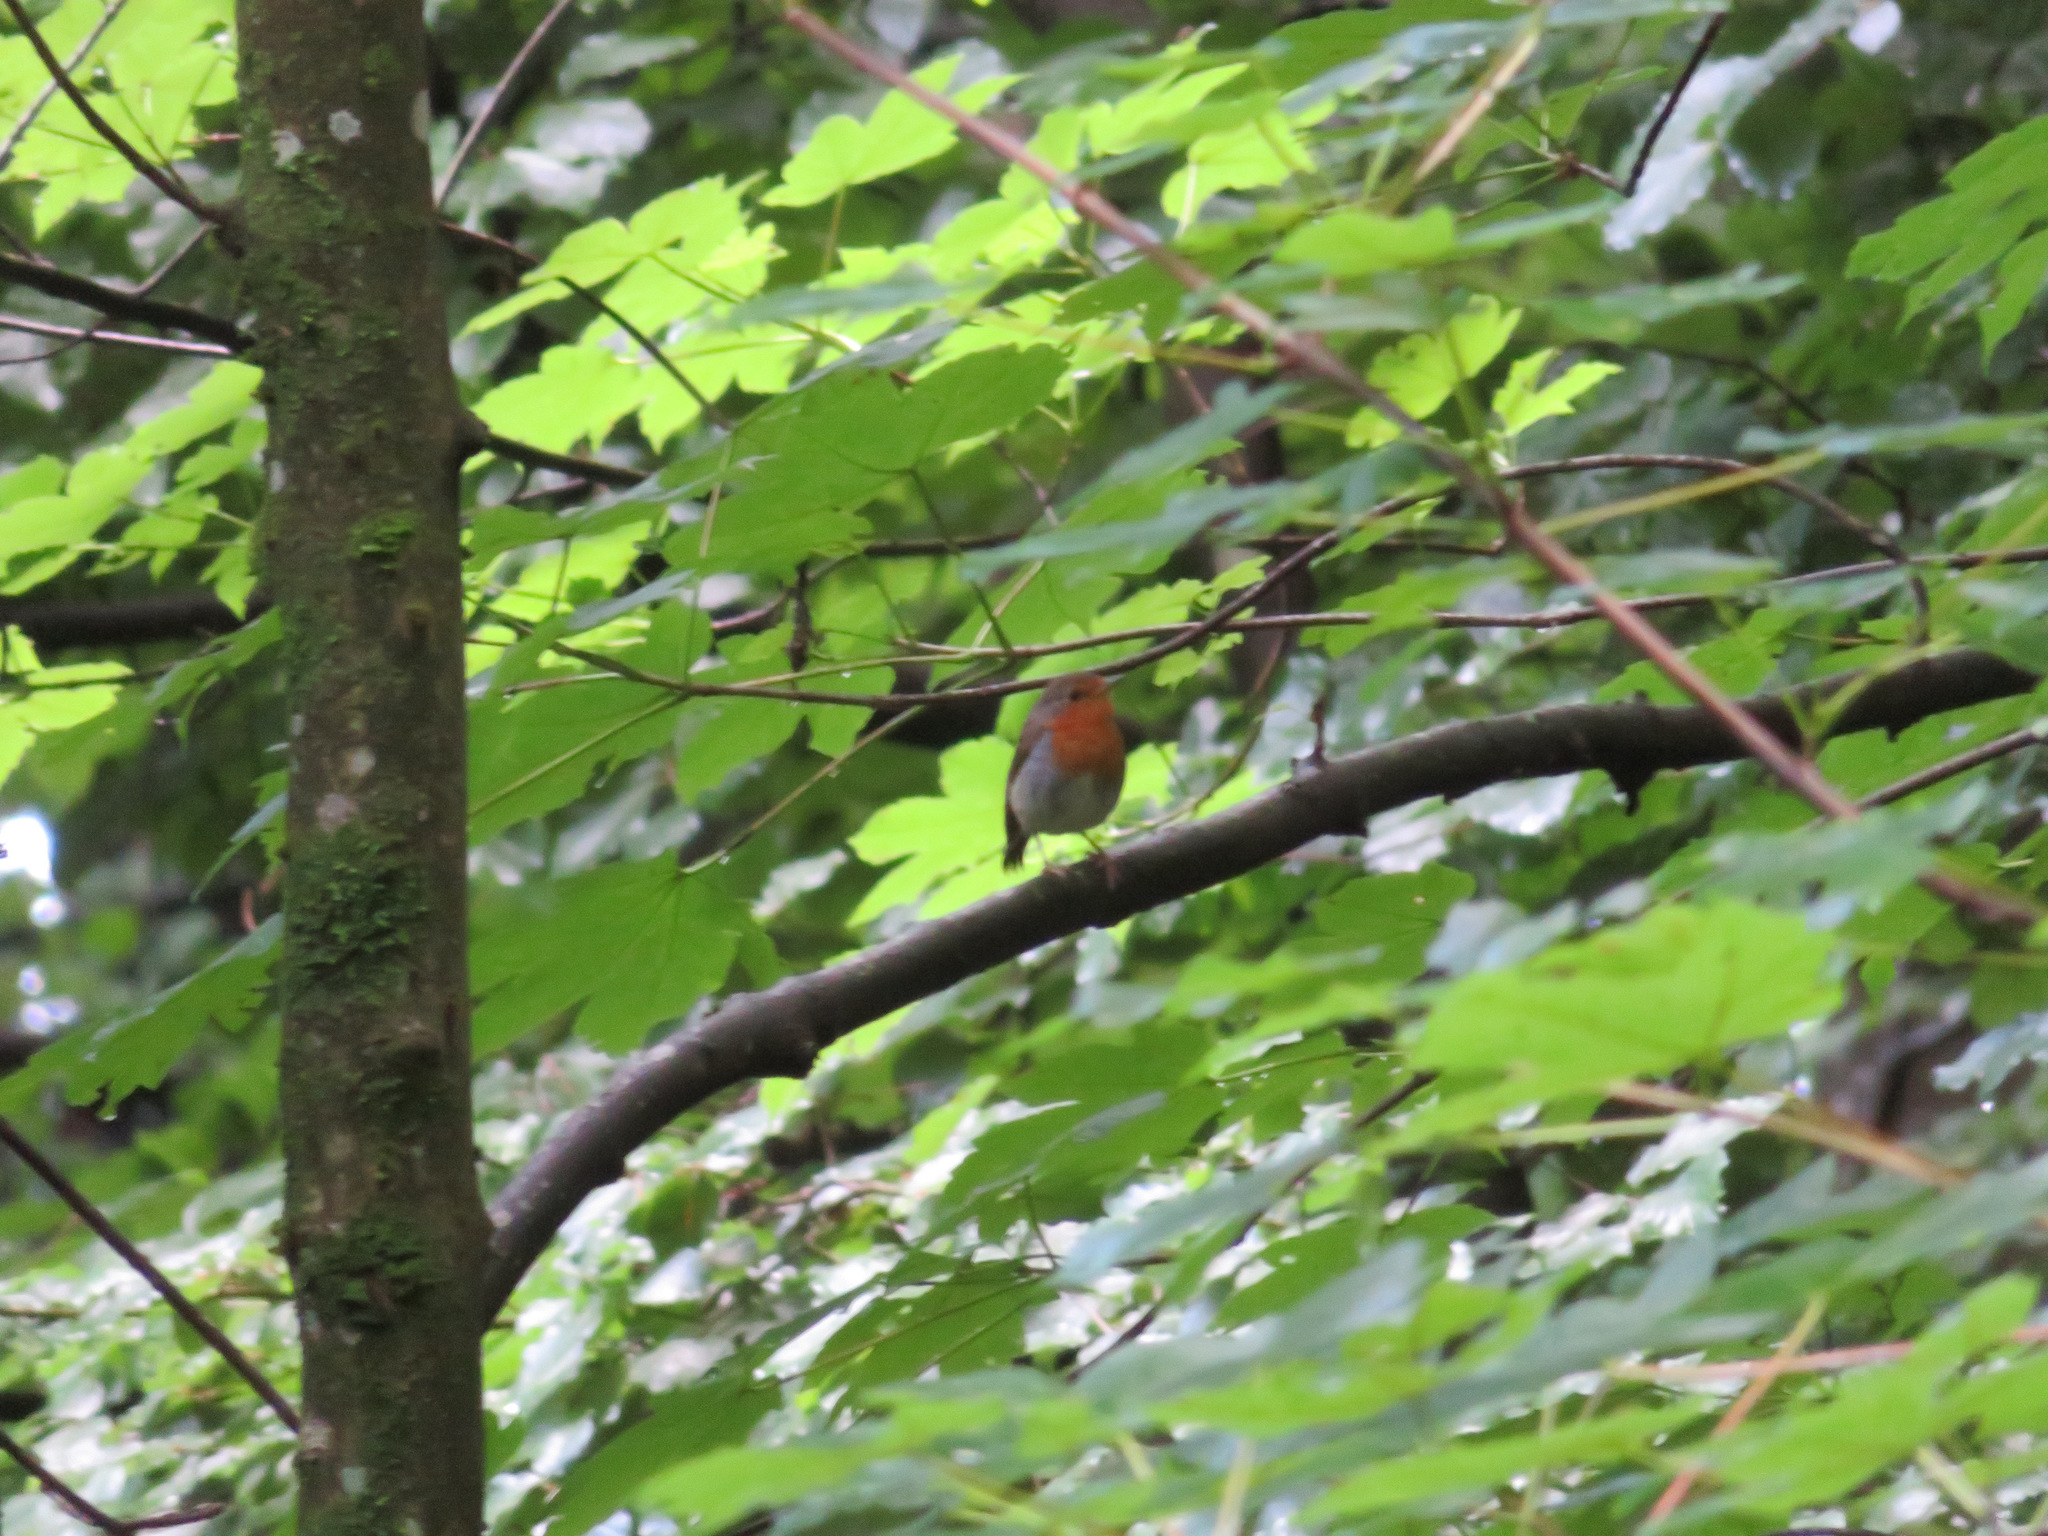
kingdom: Animalia
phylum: Chordata
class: Aves
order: Passeriformes
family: Muscicapidae
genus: Erithacus
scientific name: Erithacus rubecula
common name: European robin
